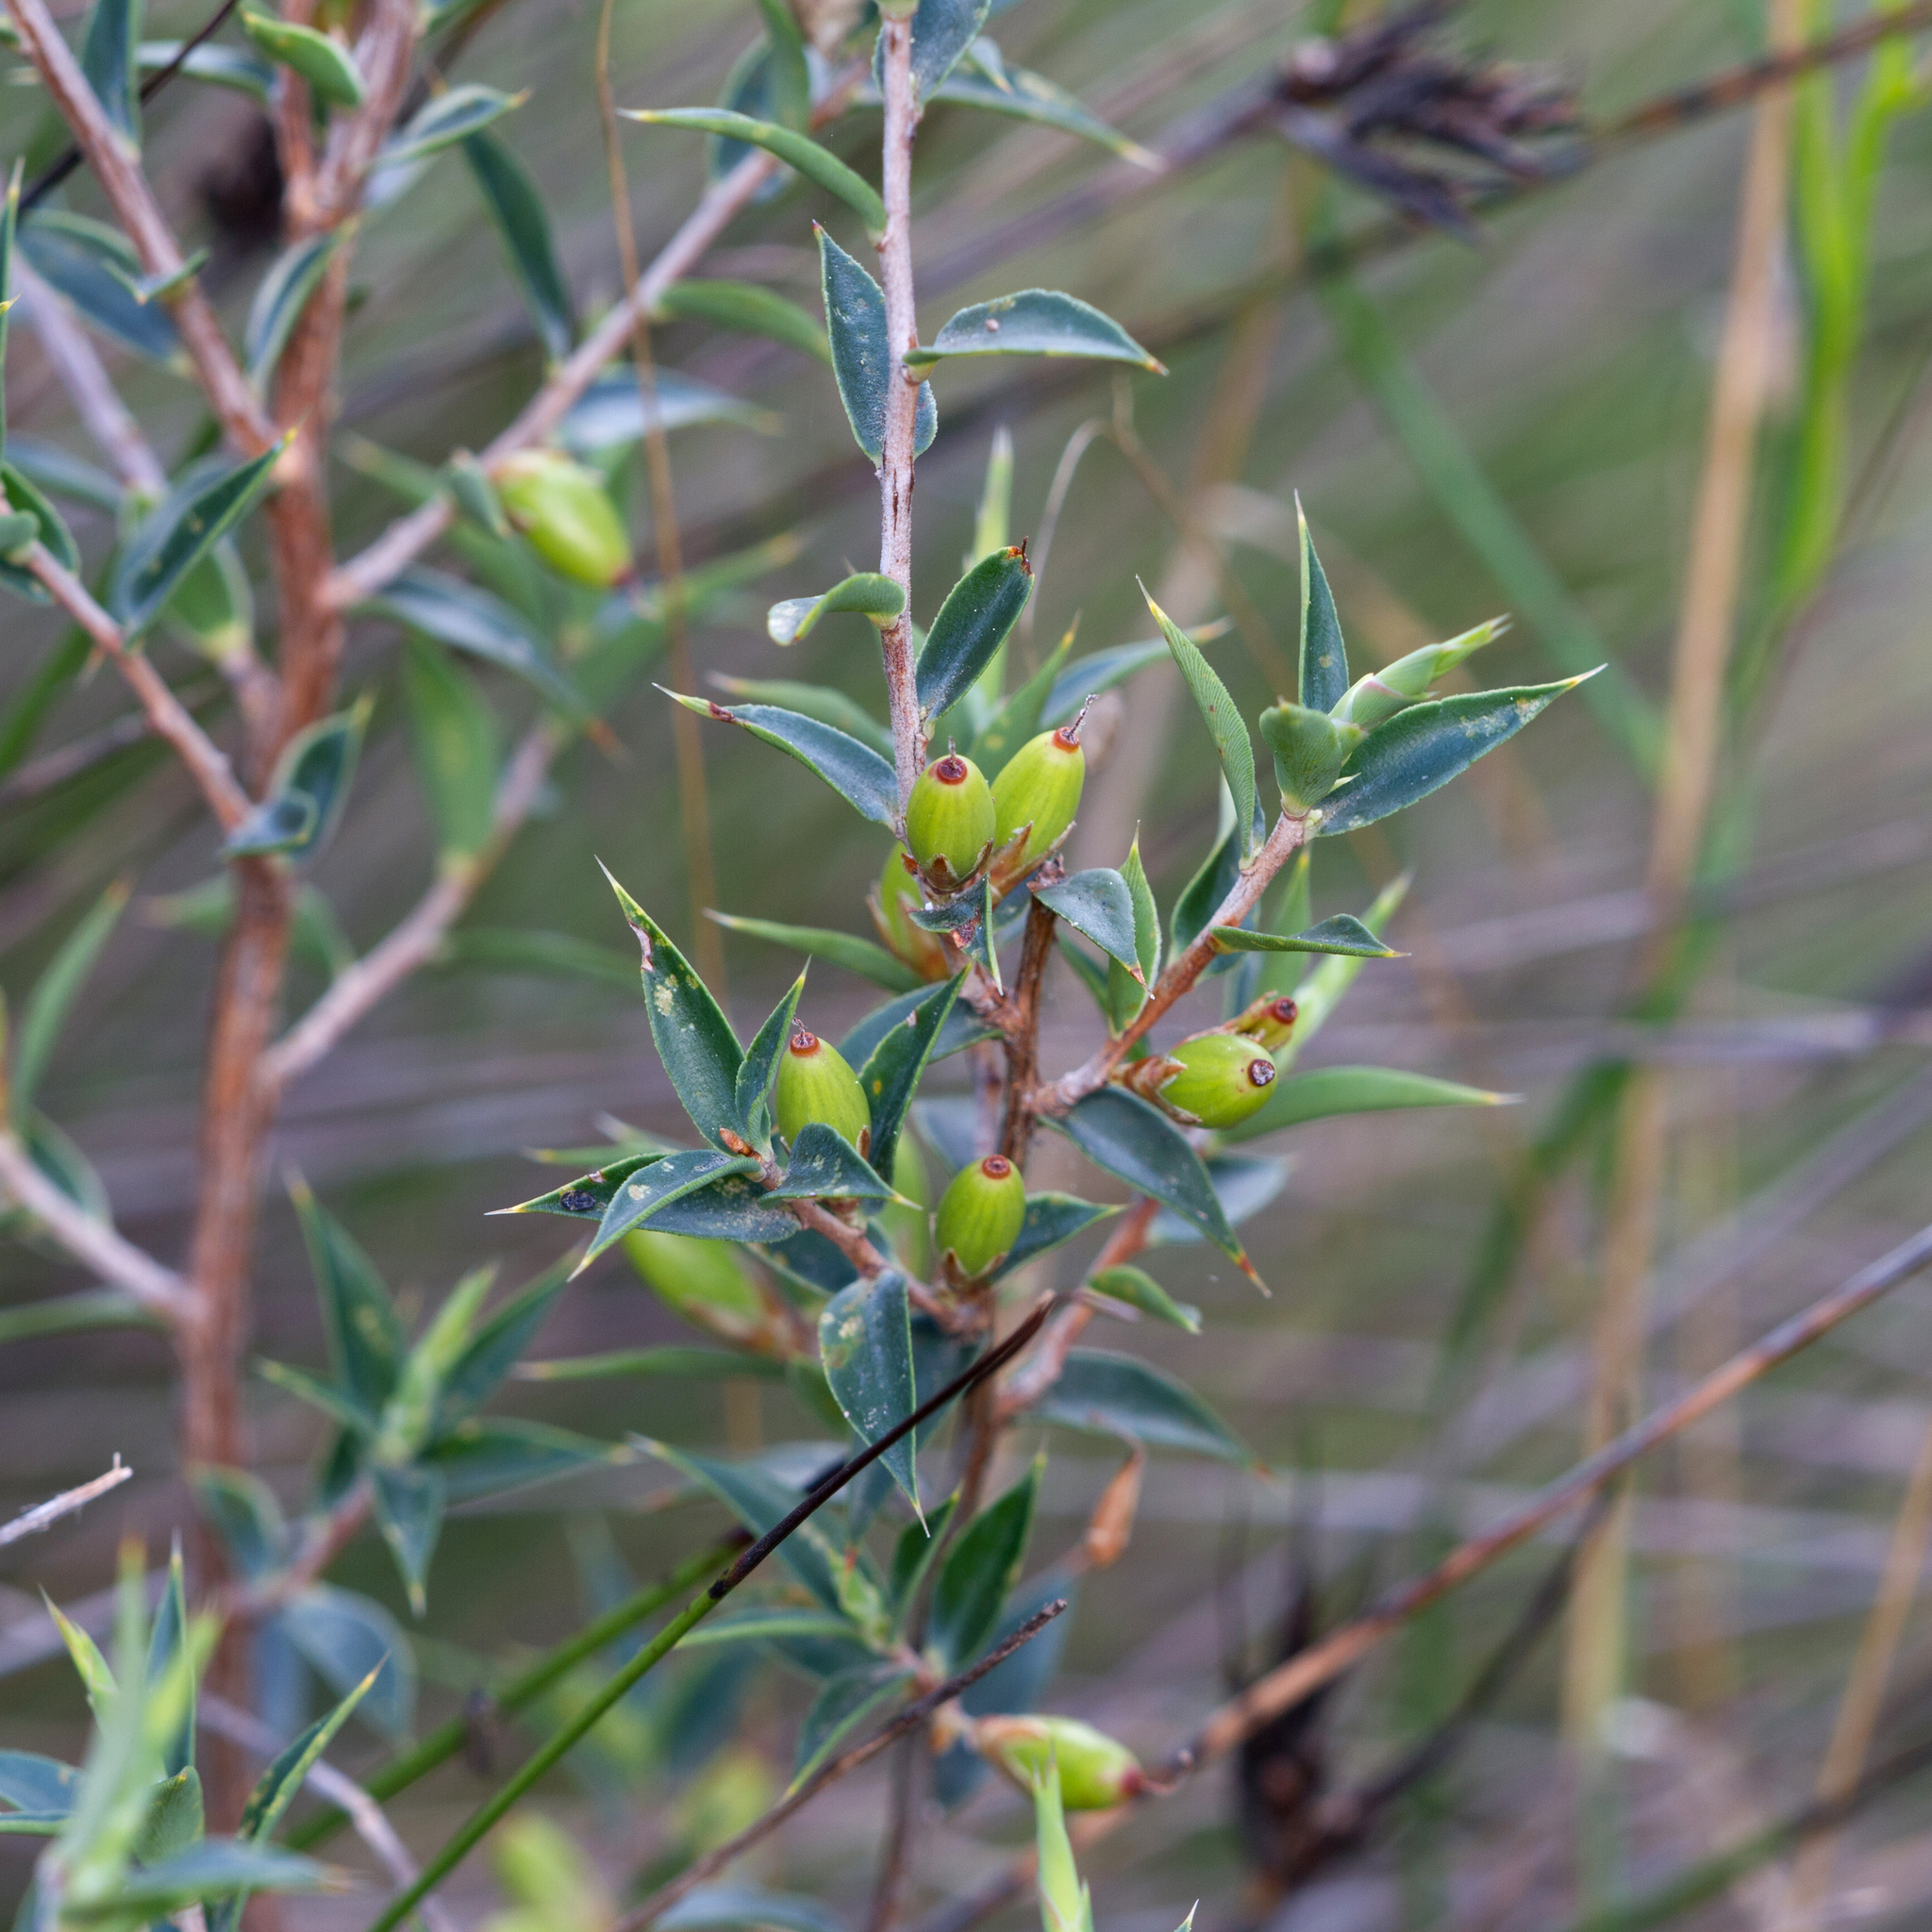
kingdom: Plantae
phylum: Tracheophyta
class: Magnoliopsida
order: Ericales
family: Ericaceae
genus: Styphelia
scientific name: Styphelia rufa
